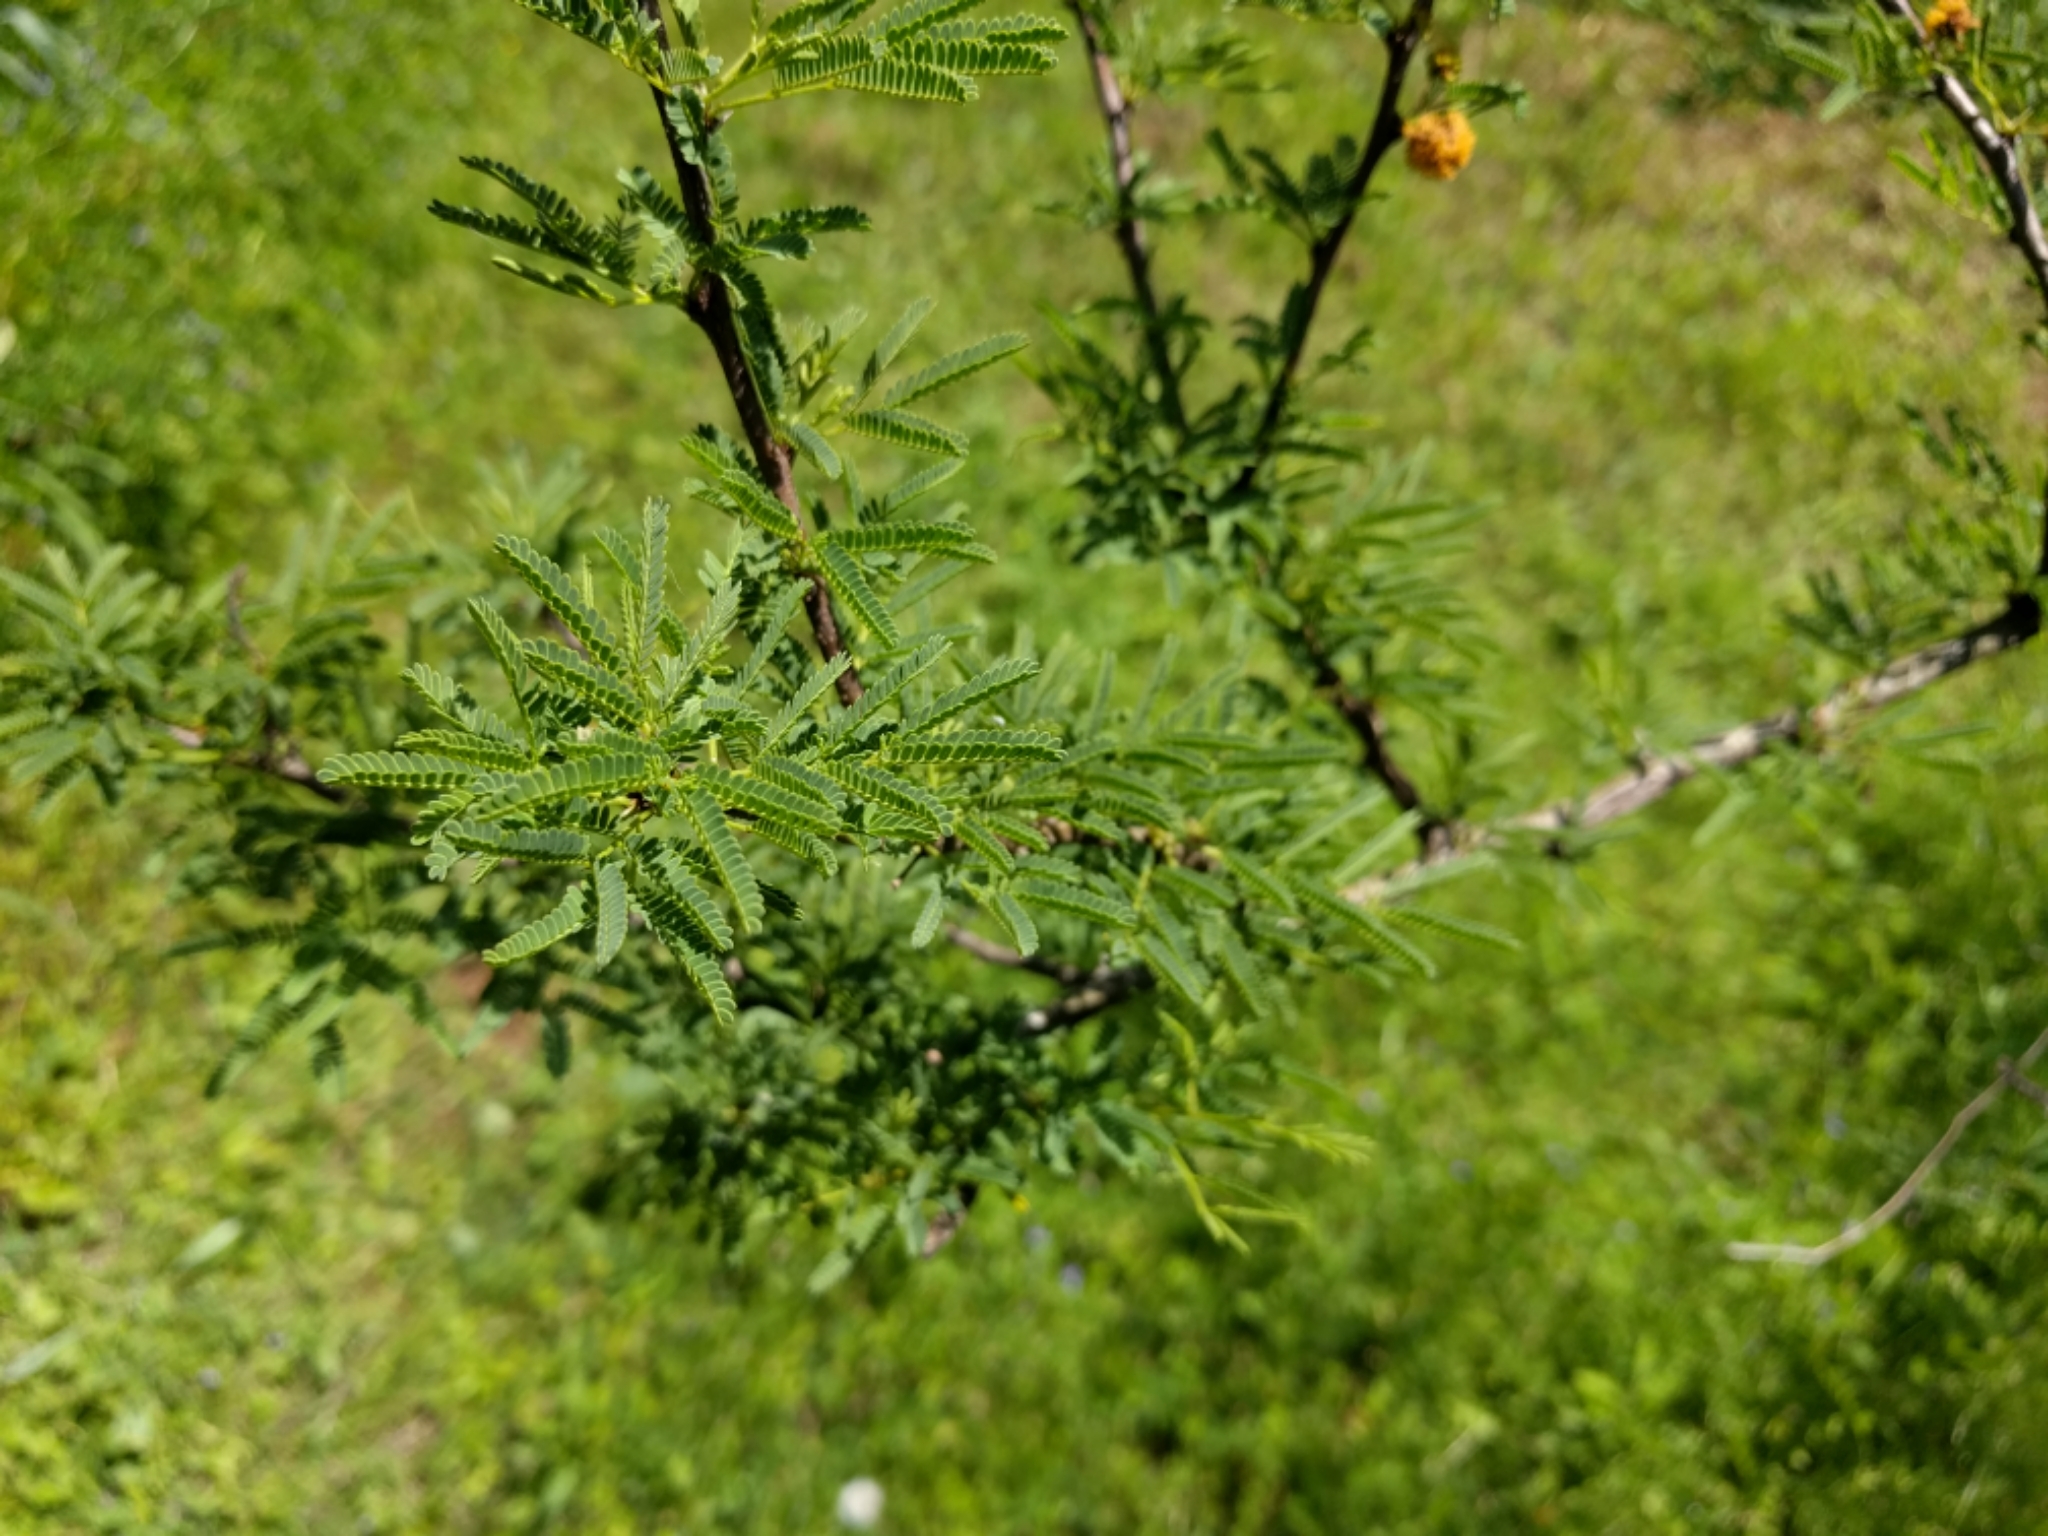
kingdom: Plantae
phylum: Tracheophyta
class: Magnoliopsida
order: Fabales
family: Fabaceae
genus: Vachellia
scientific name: Vachellia farnesiana
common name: Sweet acacia
